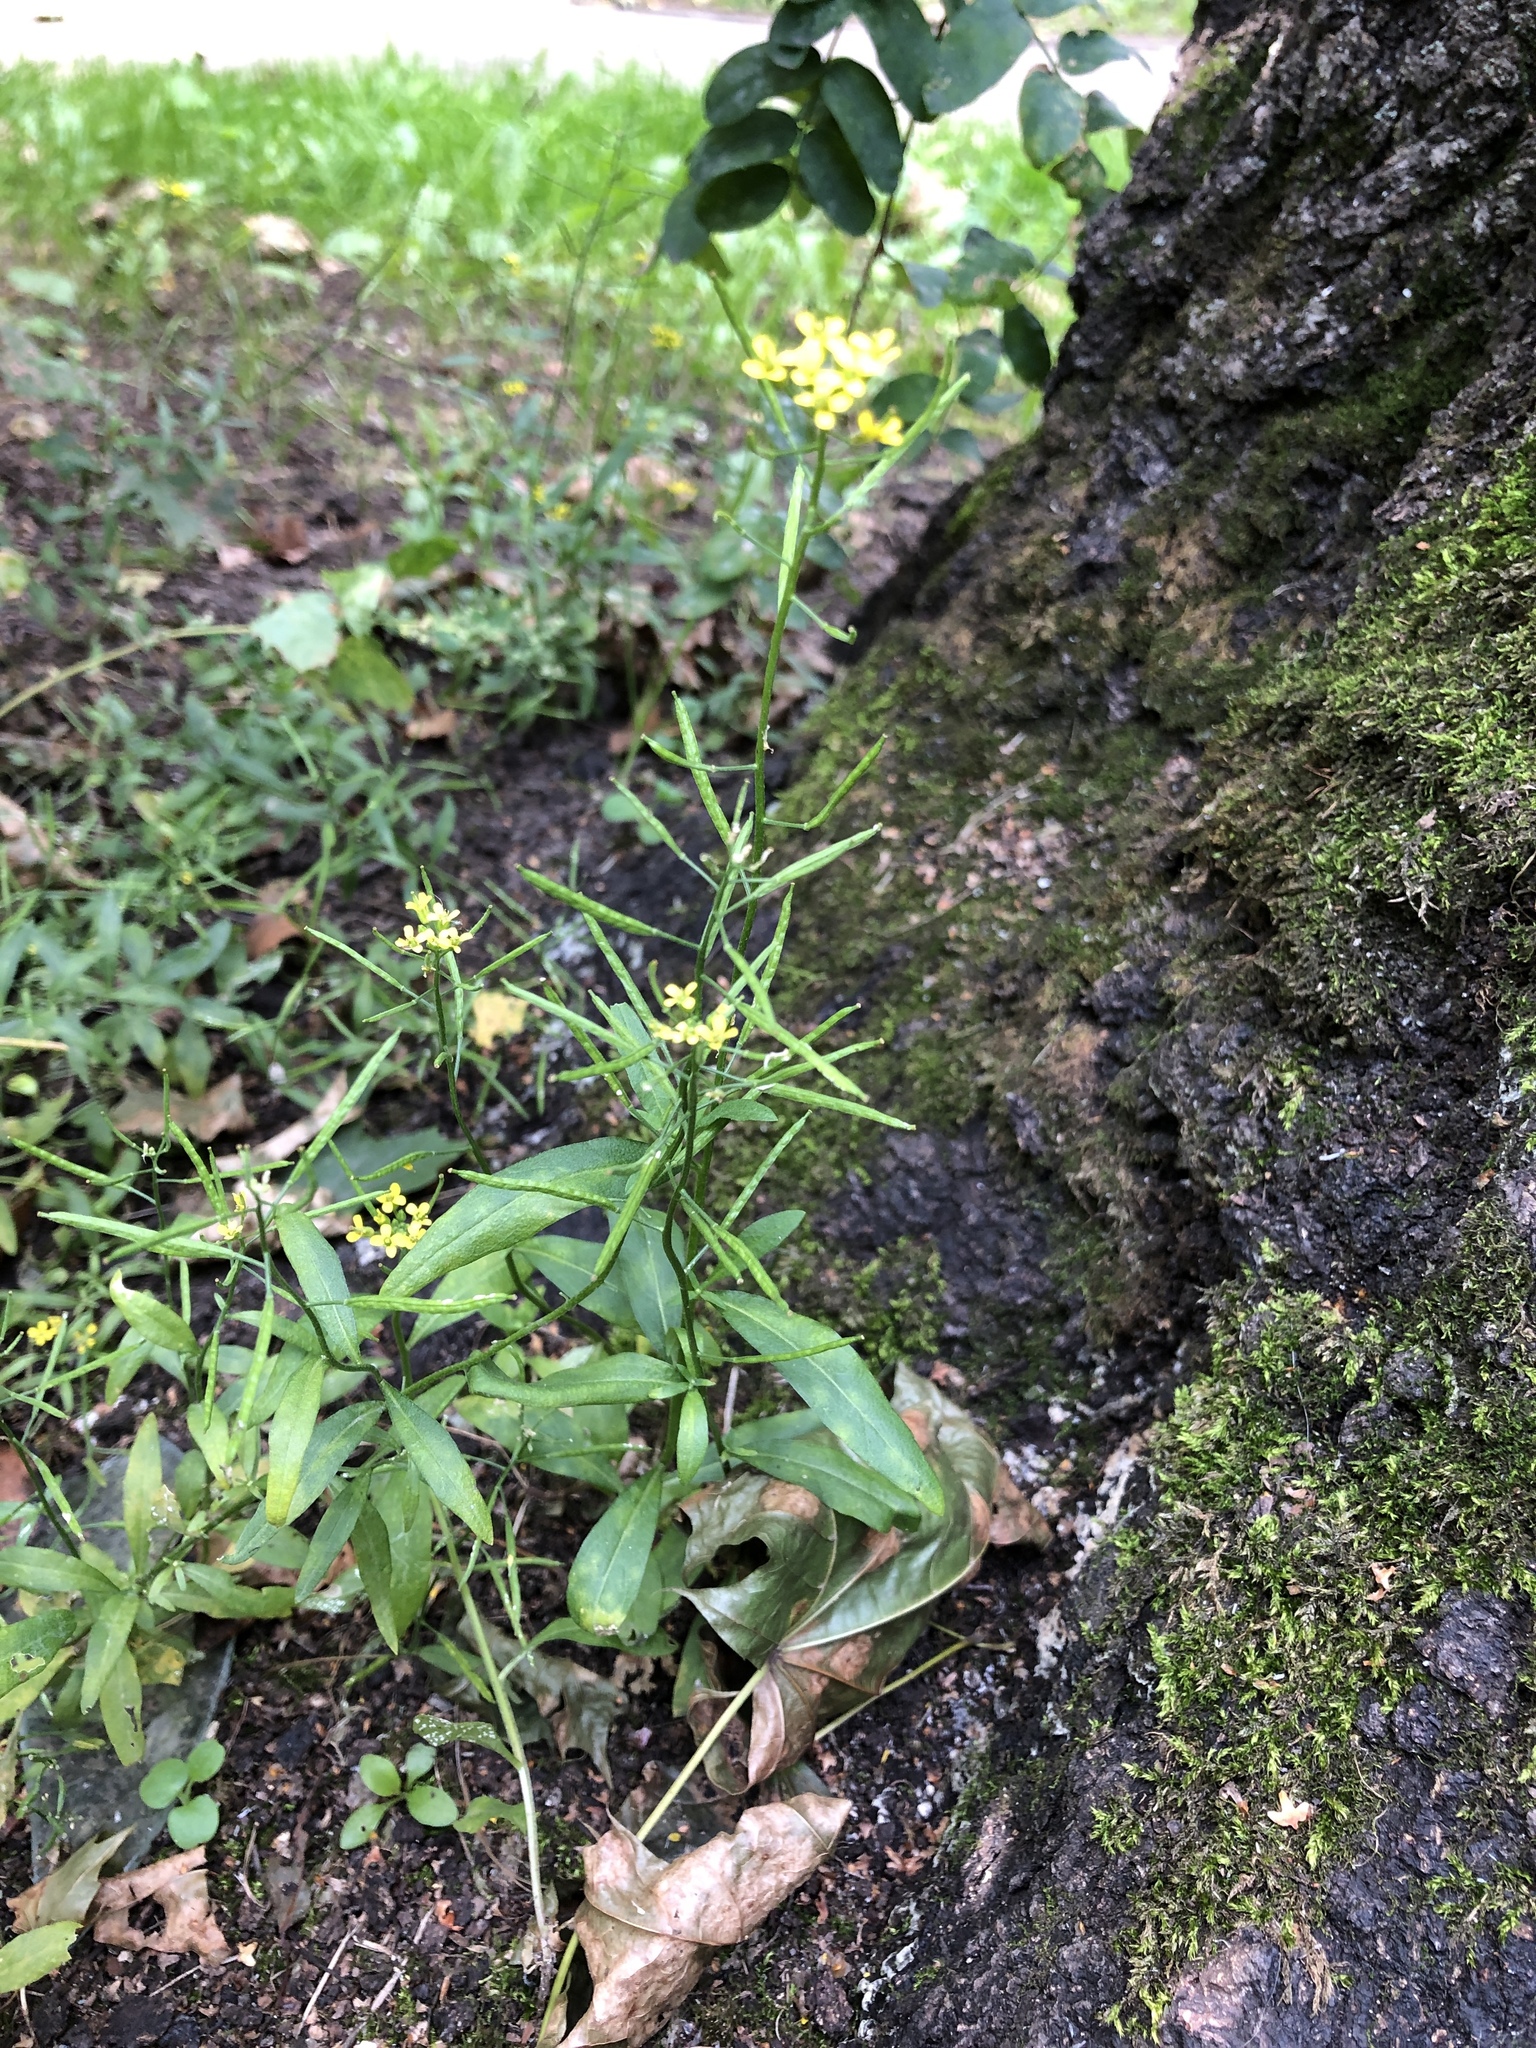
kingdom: Plantae
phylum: Tracheophyta
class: Magnoliopsida
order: Brassicales
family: Brassicaceae
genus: Erysimum
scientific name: Erysimum cheiranthoides
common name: Treacle mustard
